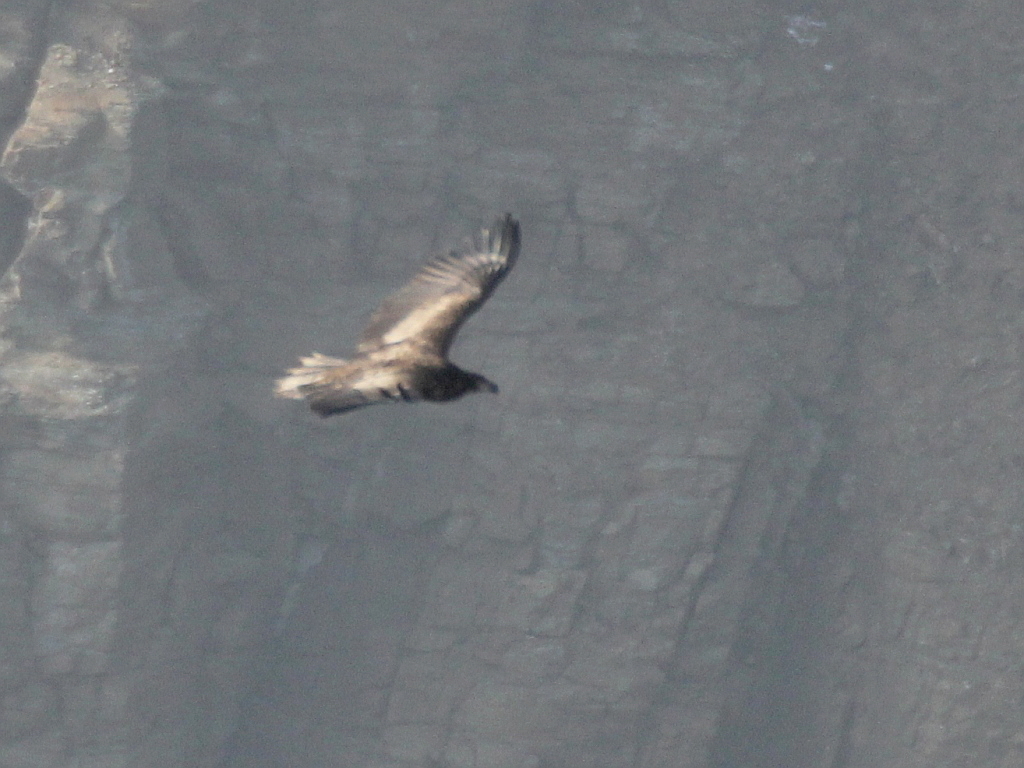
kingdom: Animalia
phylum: Chordata
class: Aves
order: Accipitriformes
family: Accipitridae
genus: Haliaeetus
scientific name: Haliaeetus albicilla
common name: White-tailed eagle
